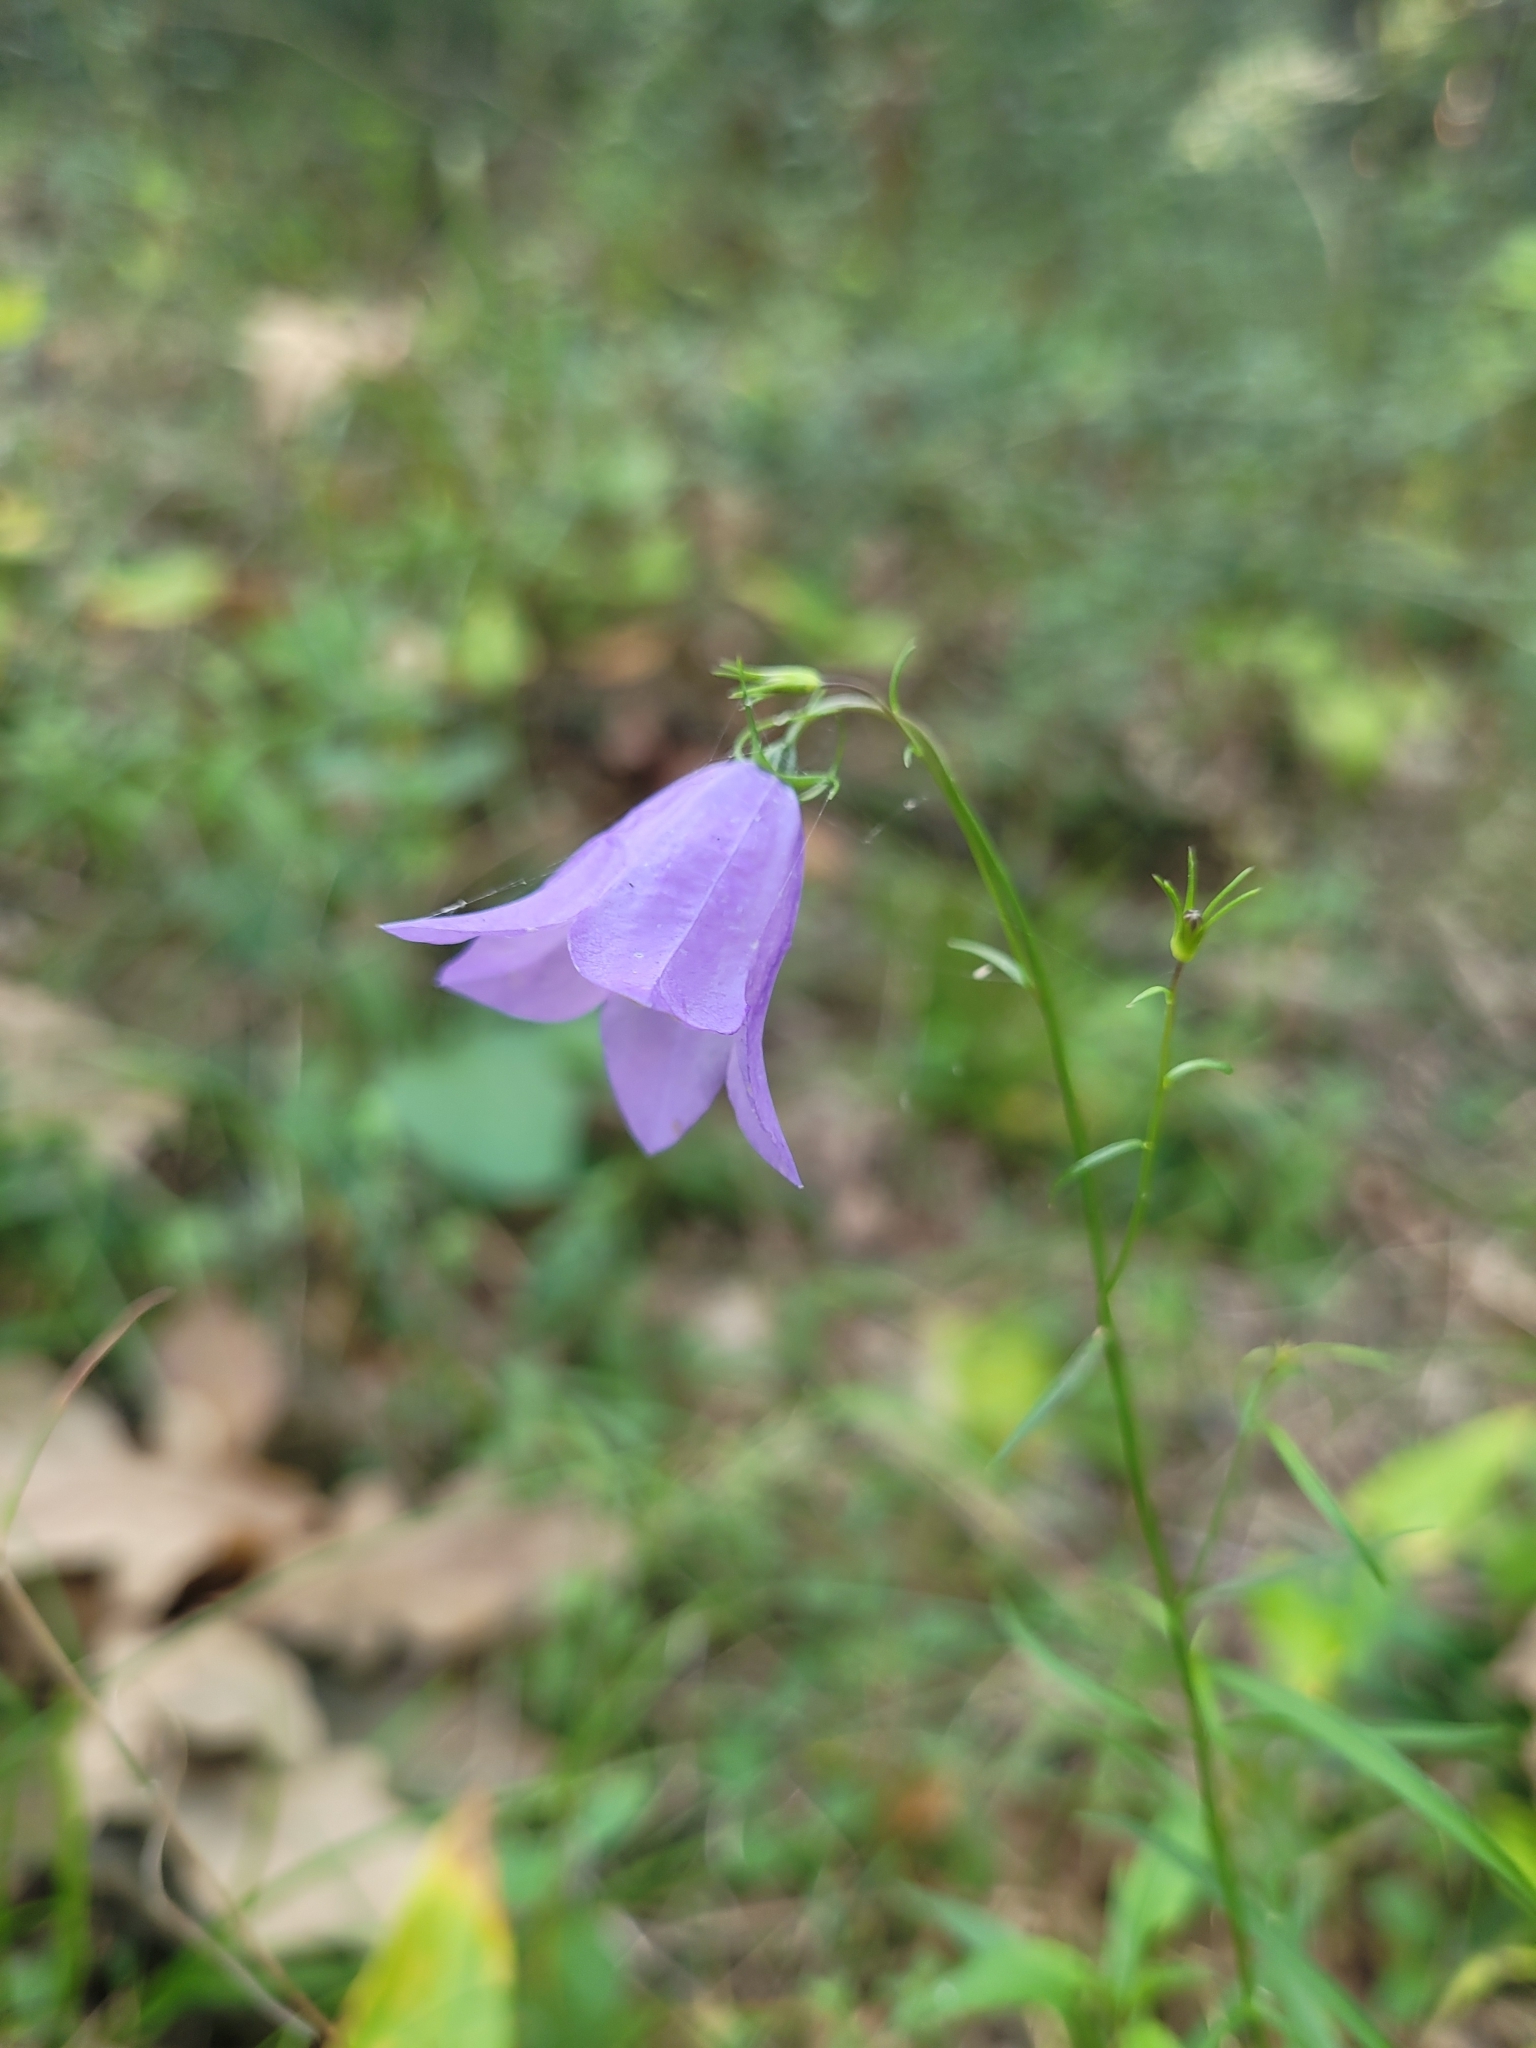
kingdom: Plantae
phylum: Tracheophyta
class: Magnoliopsida
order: Asterales
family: Campanulaceae
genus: Campanula
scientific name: Campanula rotundifolia
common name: Harebell
